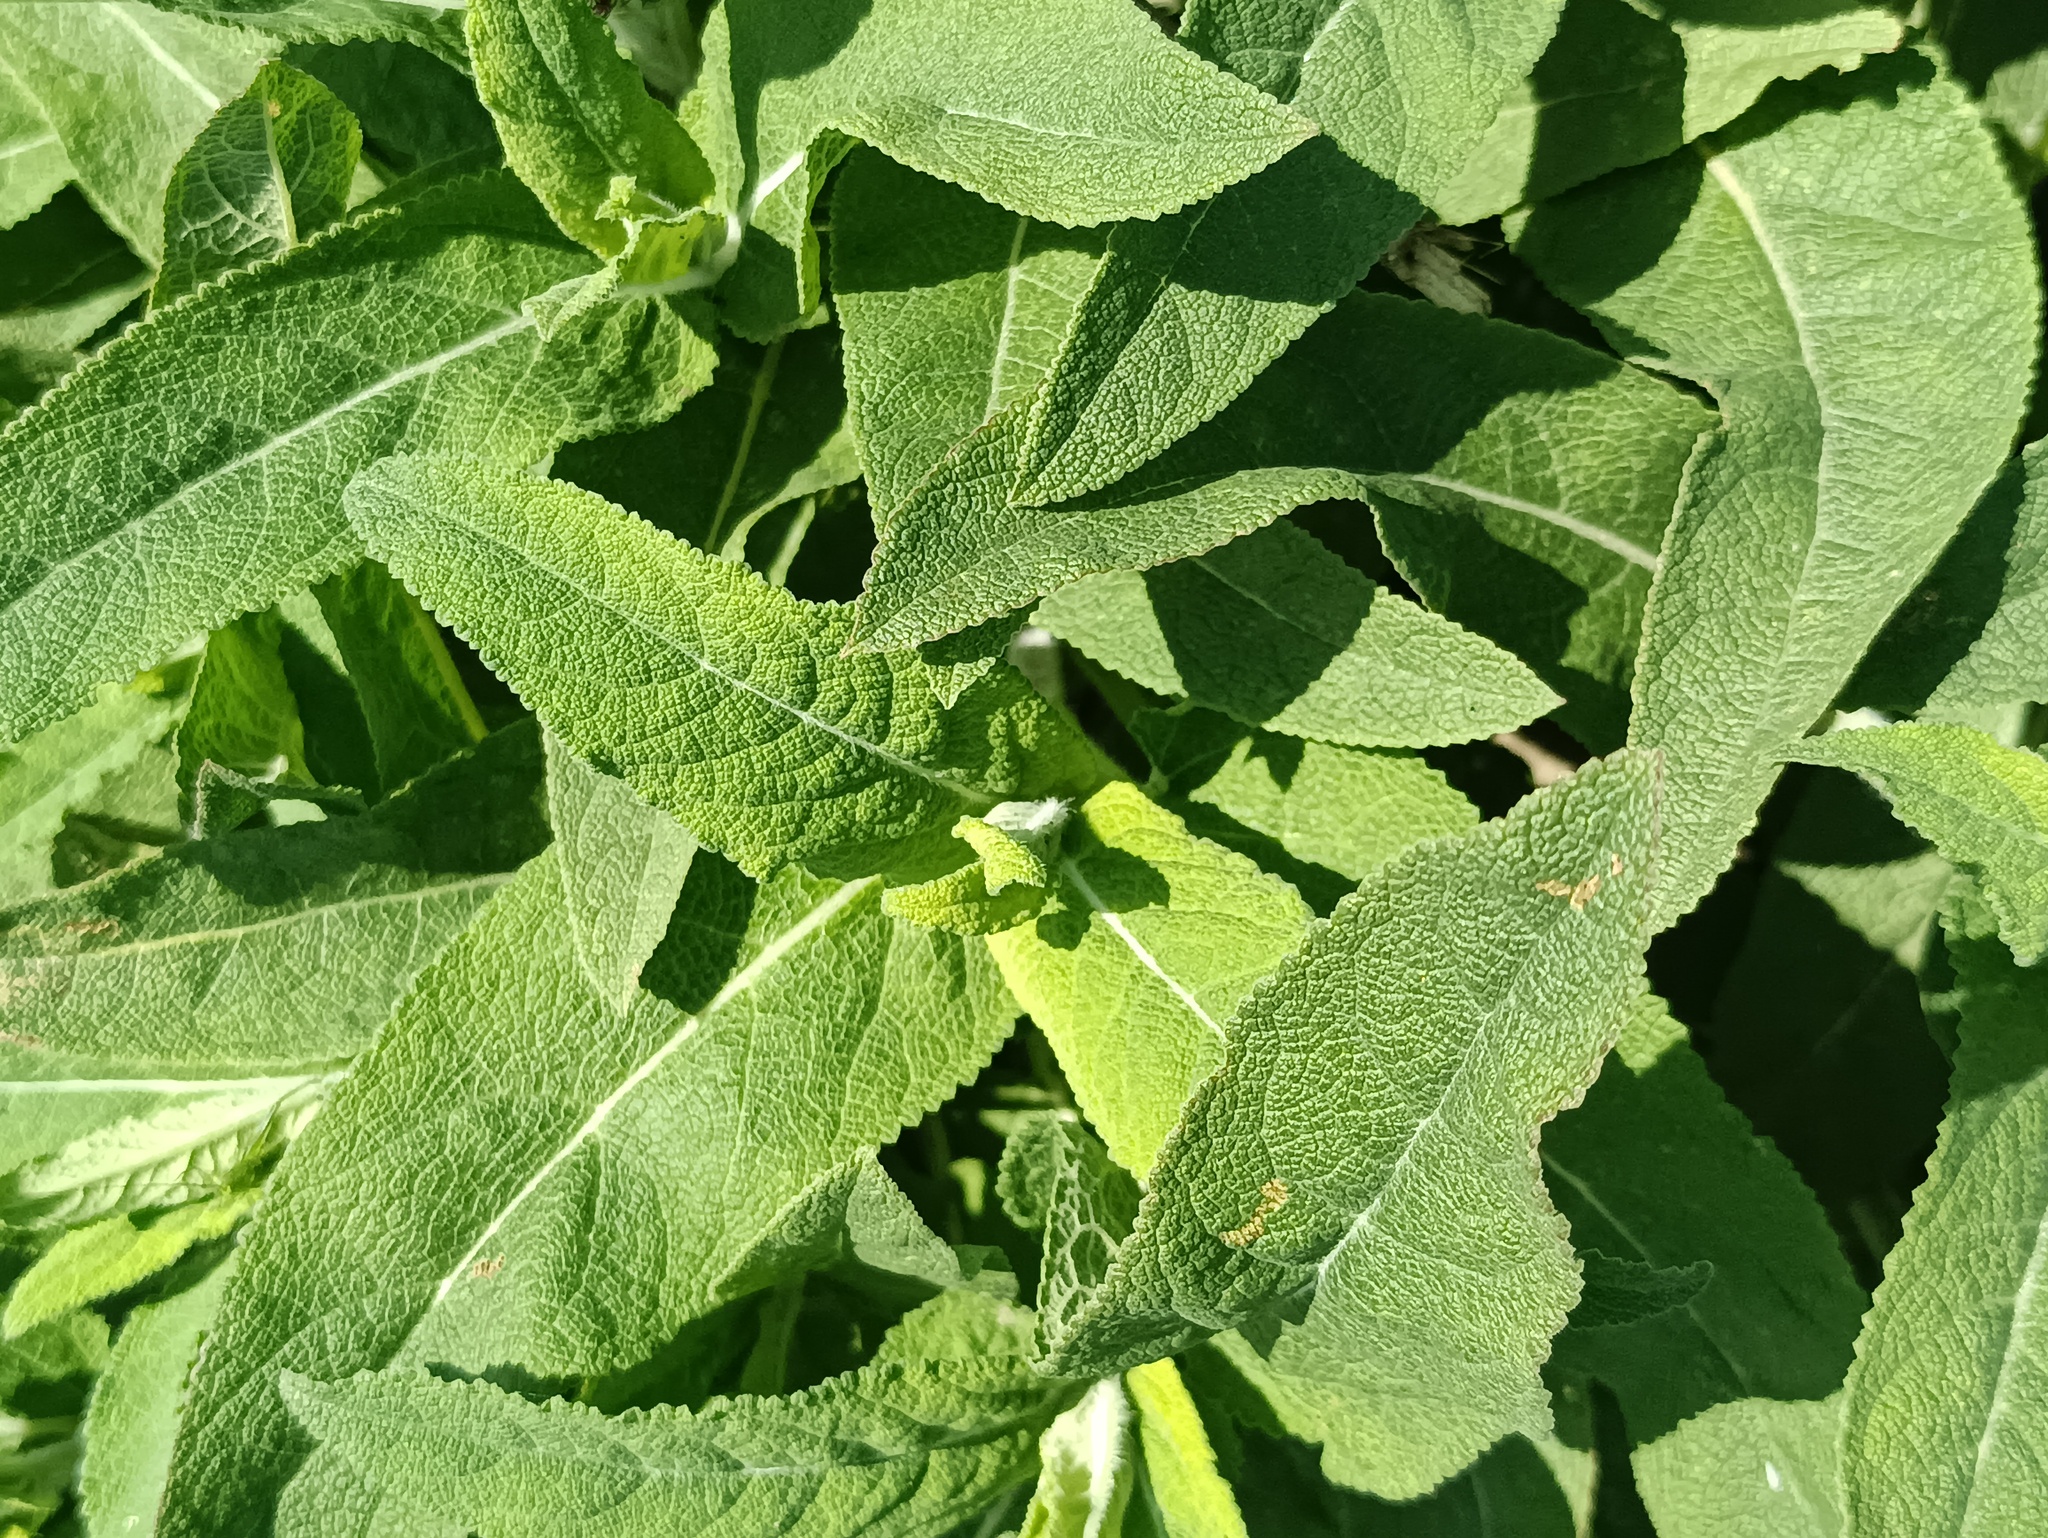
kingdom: Plantae
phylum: Tracheophyta
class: Magnoliopsida
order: Lamiales
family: Lamiaceae
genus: Salvia
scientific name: Salvia nemorosa
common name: Balkan clary
